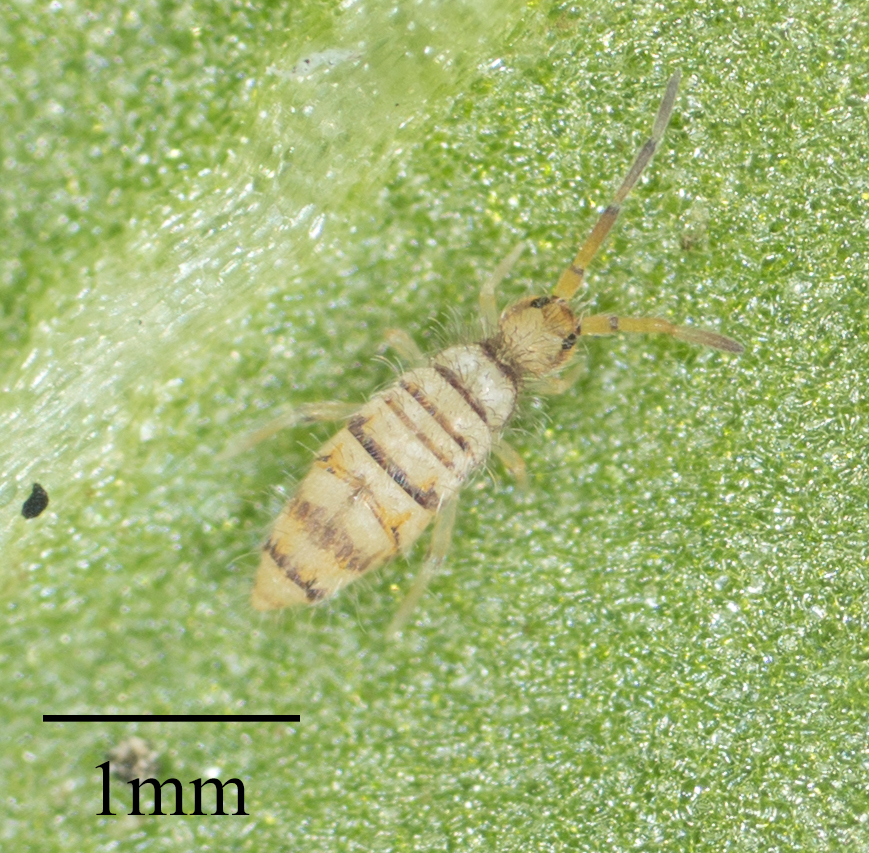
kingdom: Animalia
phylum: Arthropoda
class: Collembola
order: Entomobryomorpha
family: Entomobryidae
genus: Entomobrya
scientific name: Entomobrya atrocincta
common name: Springtail
